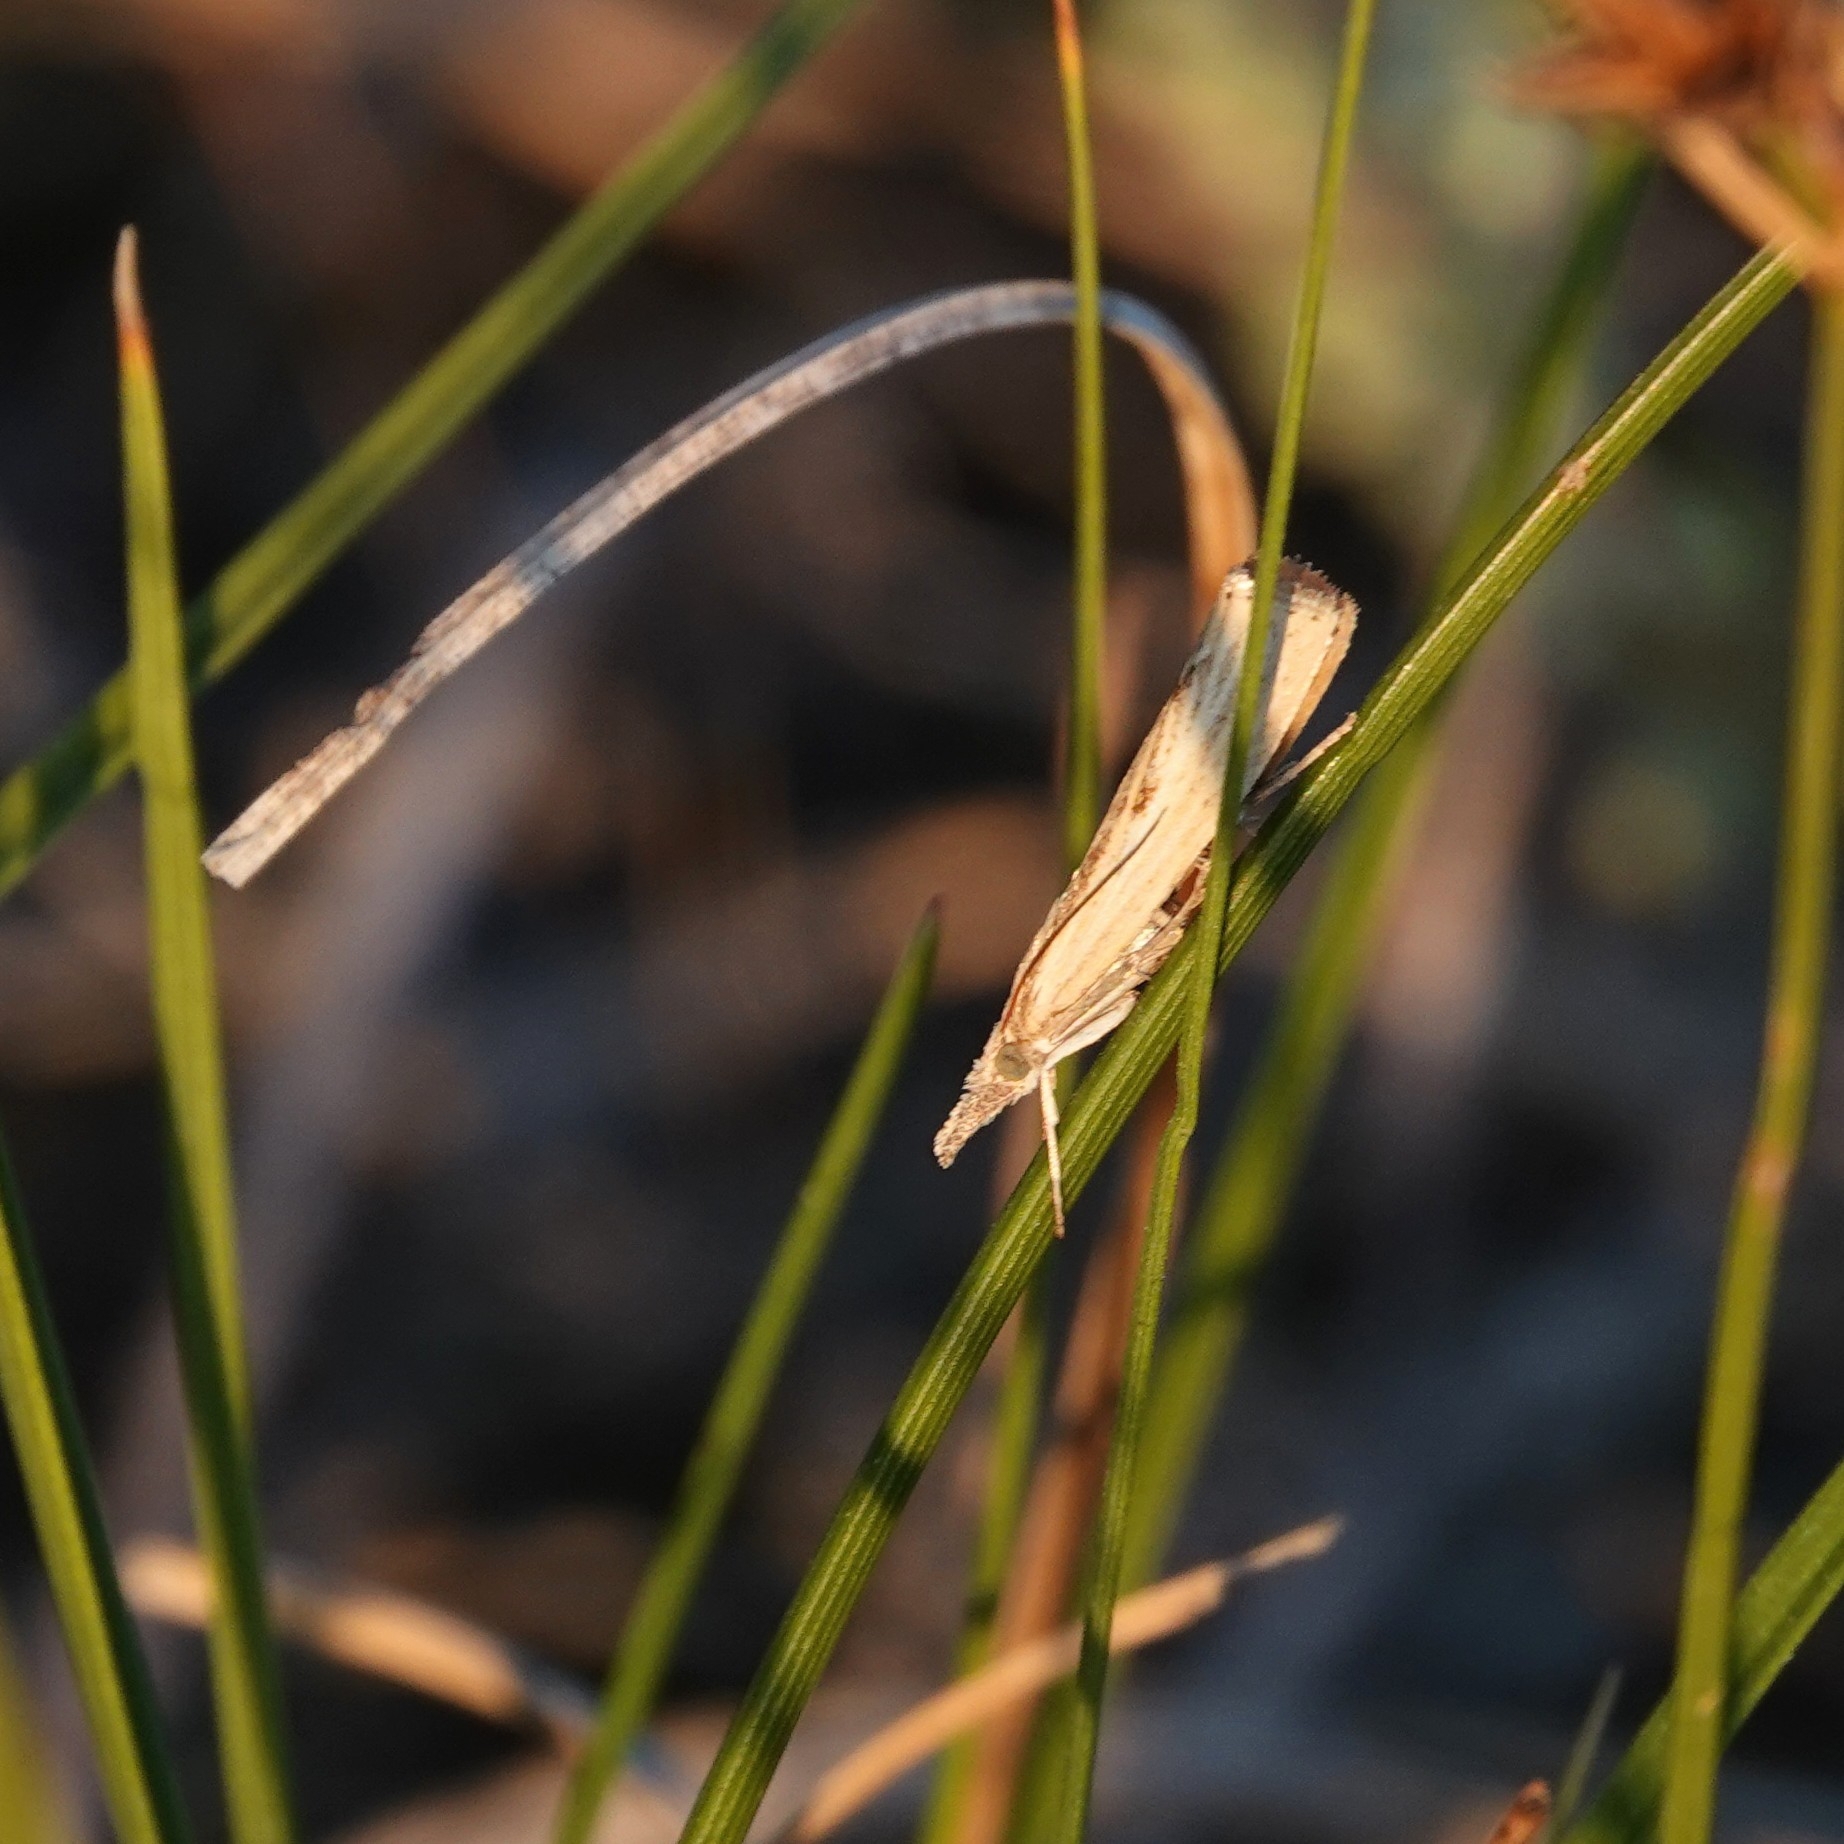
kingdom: Animalia
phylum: Arthropoda
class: Insecta
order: Lepidoptera
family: Crambidae
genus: Agriphila
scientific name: Agriphila inquinatella
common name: Barred grass-veneer
